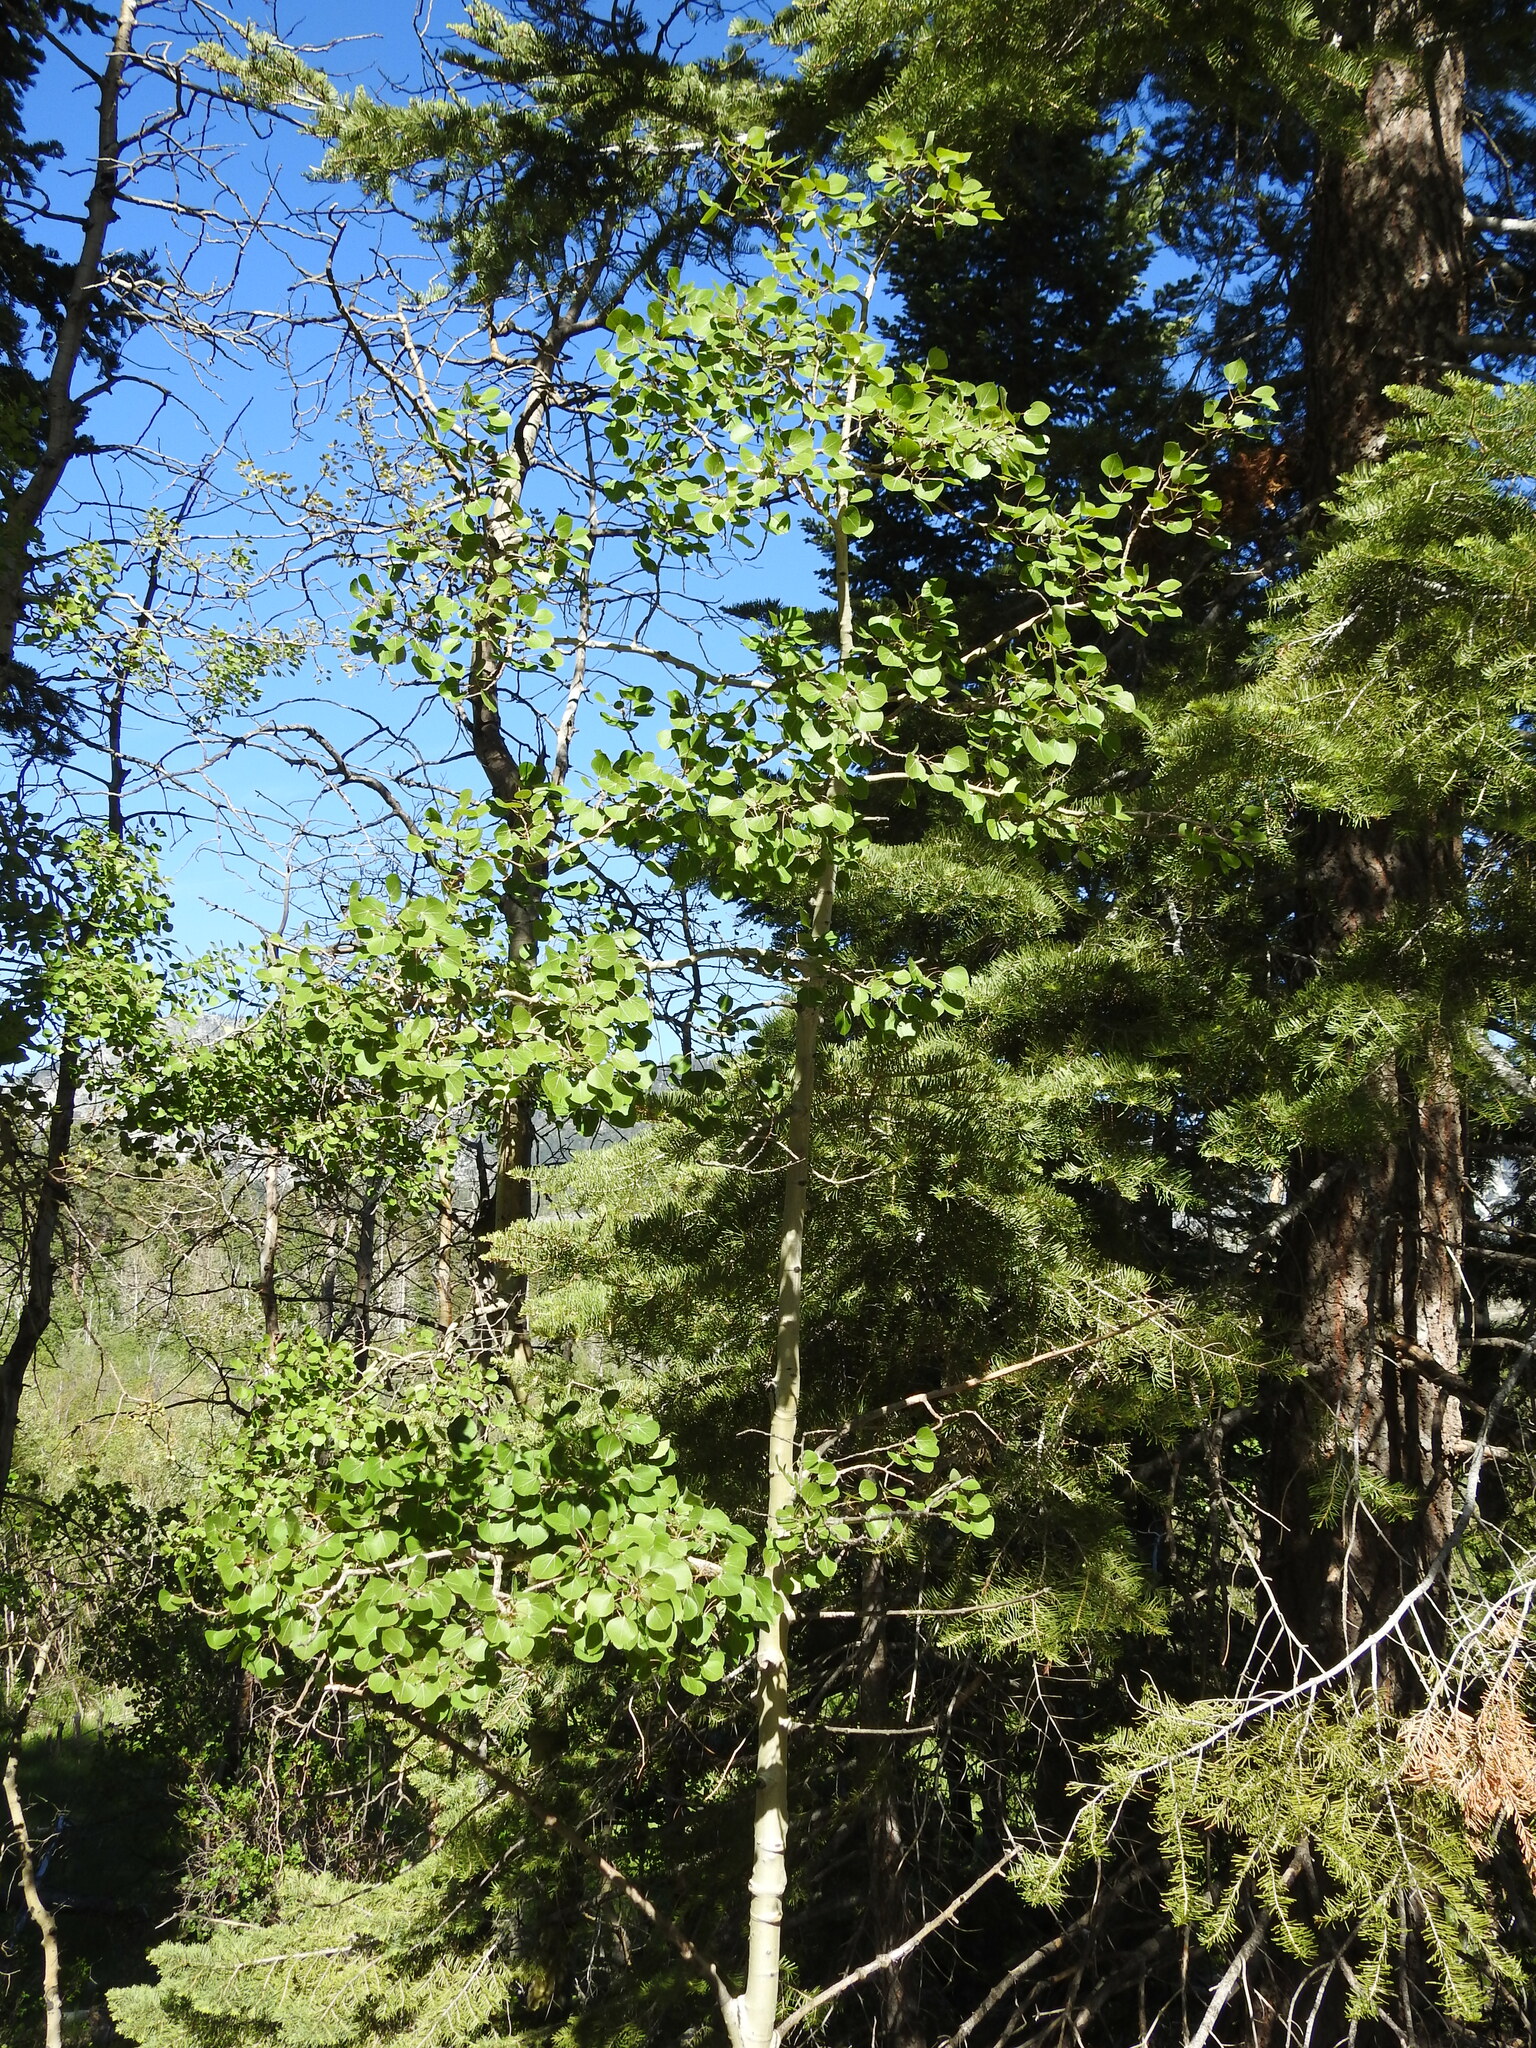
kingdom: Plantae
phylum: Tracheophyta
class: Magnoliopsida
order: Malpighiales
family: Salicaceae
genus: Populus
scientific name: Populus tremuloides
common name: Quaking aspen
